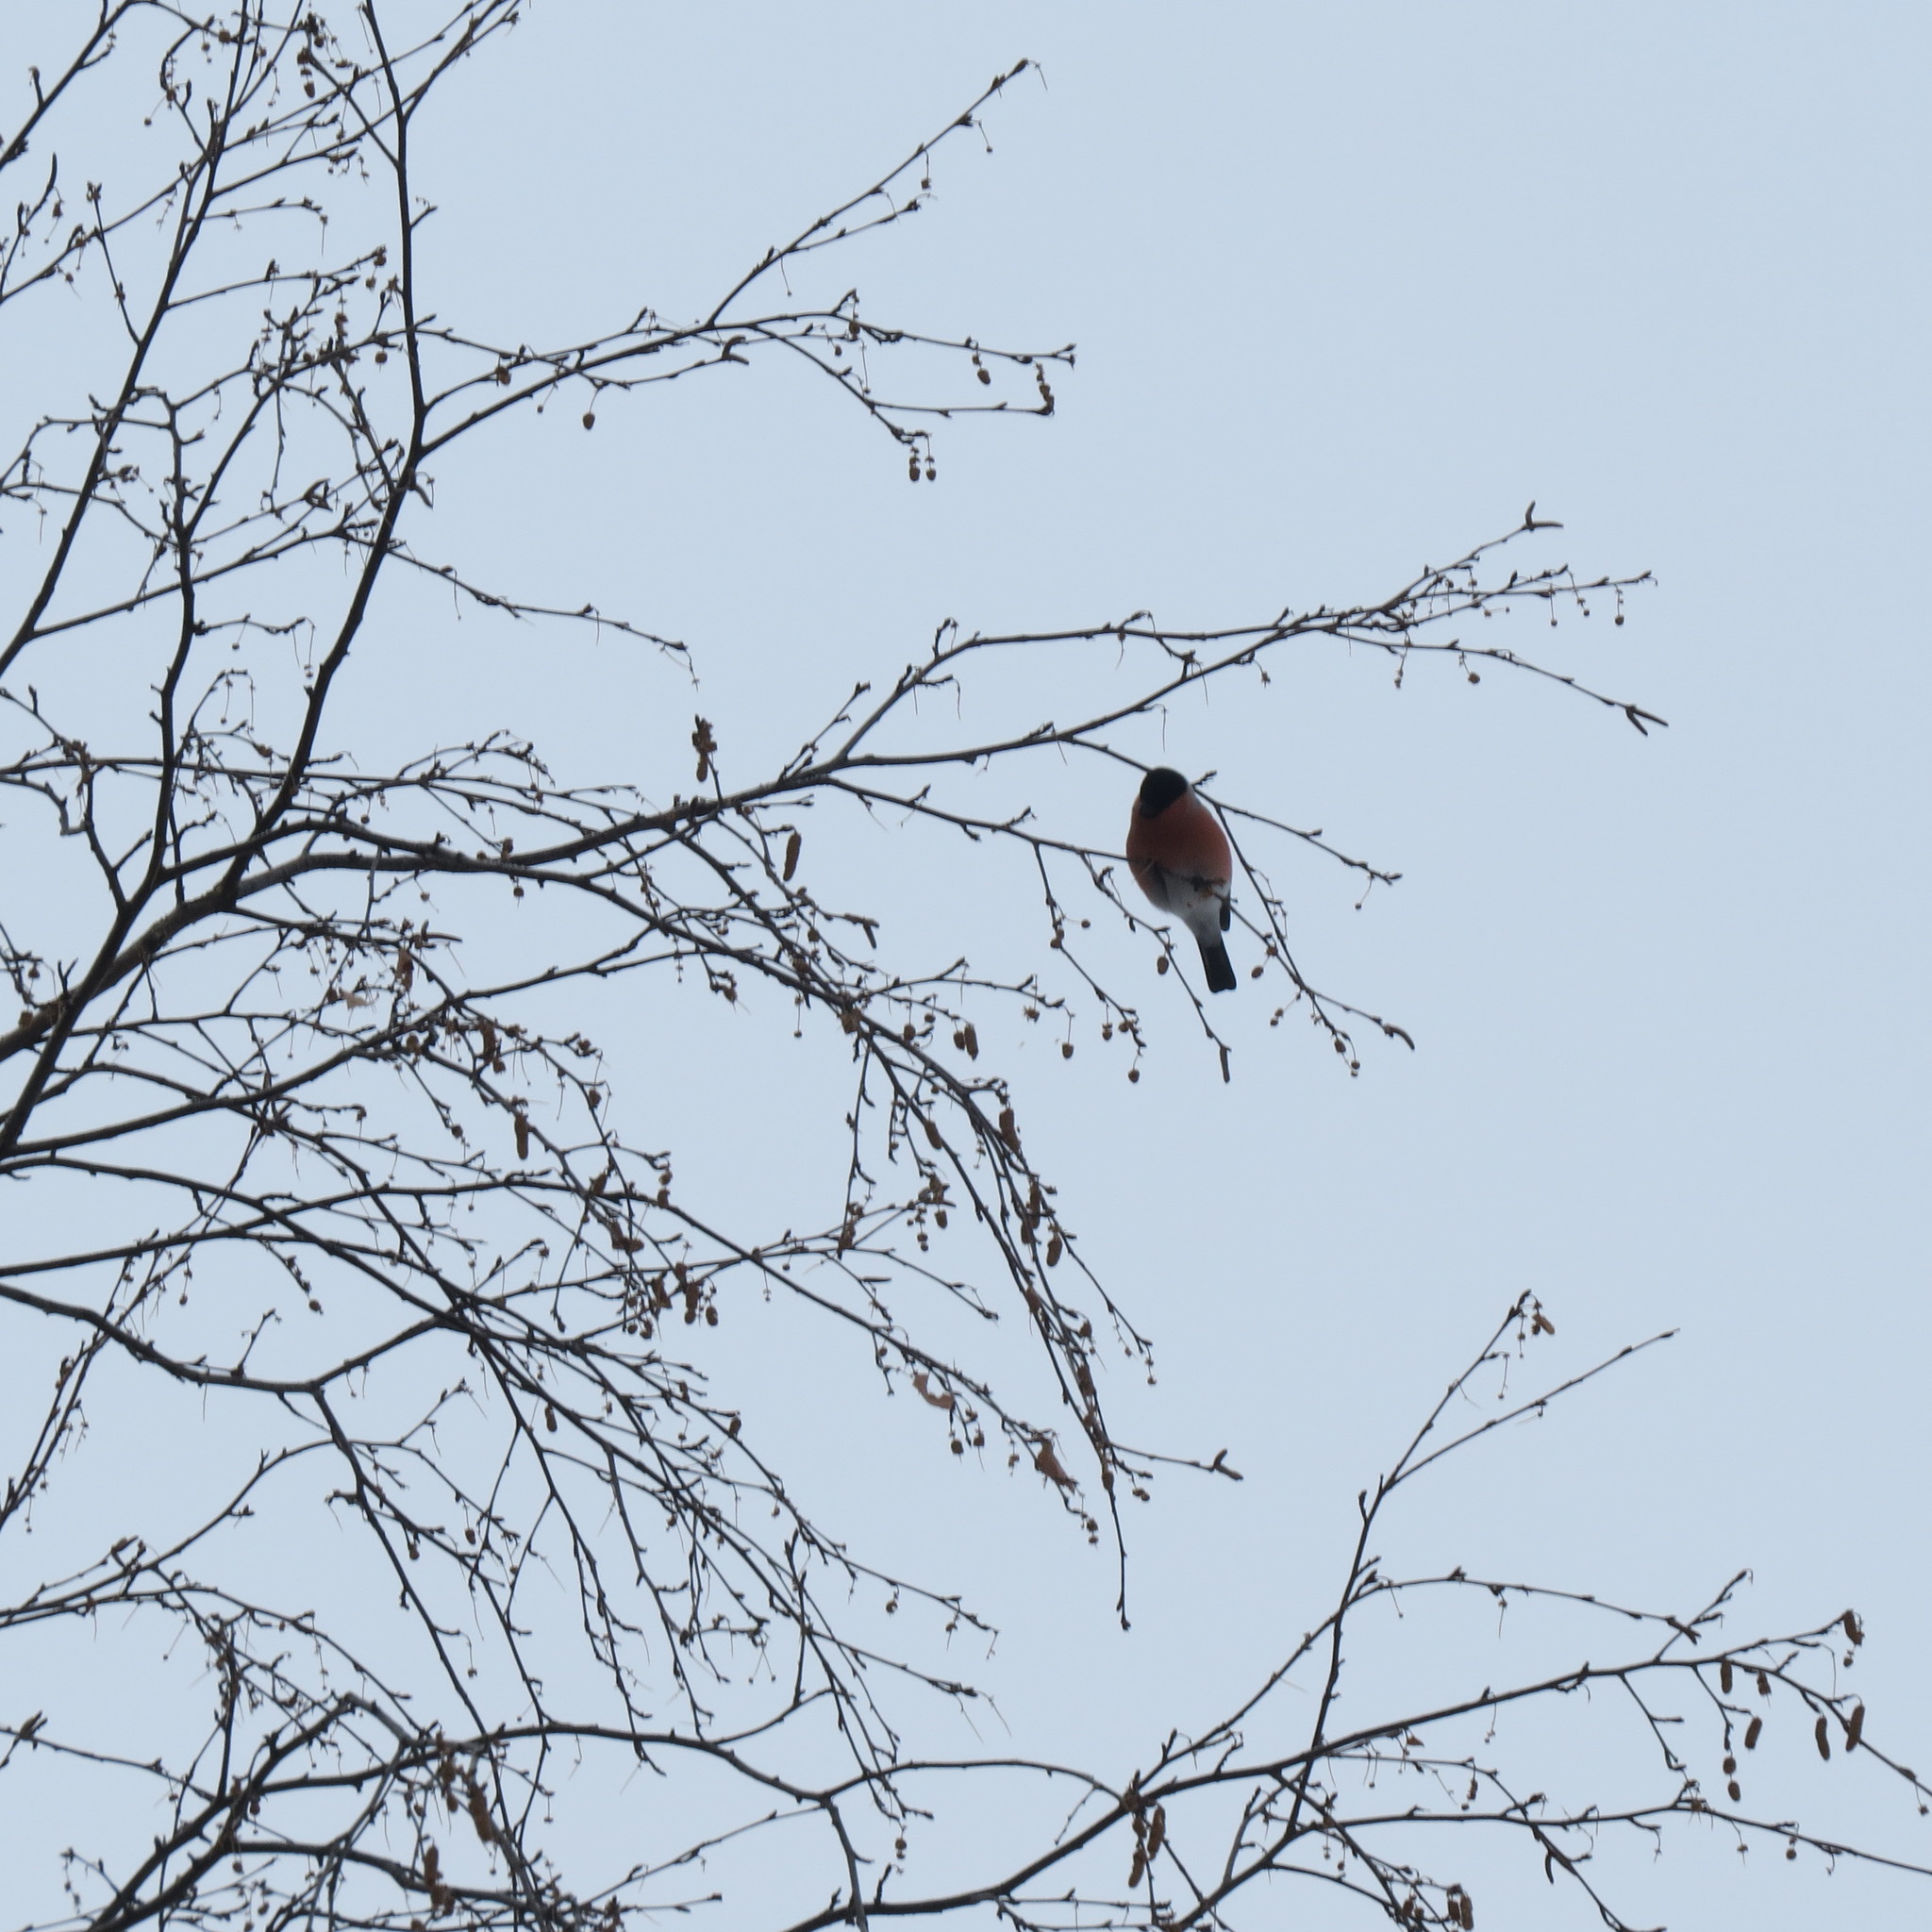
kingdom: Animalia
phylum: Chordata
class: Aves
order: Passeriformes
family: Fringillidae
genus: Pyrrhula
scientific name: Pyrrhula pyrrhula
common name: Eurasian bullfinch
